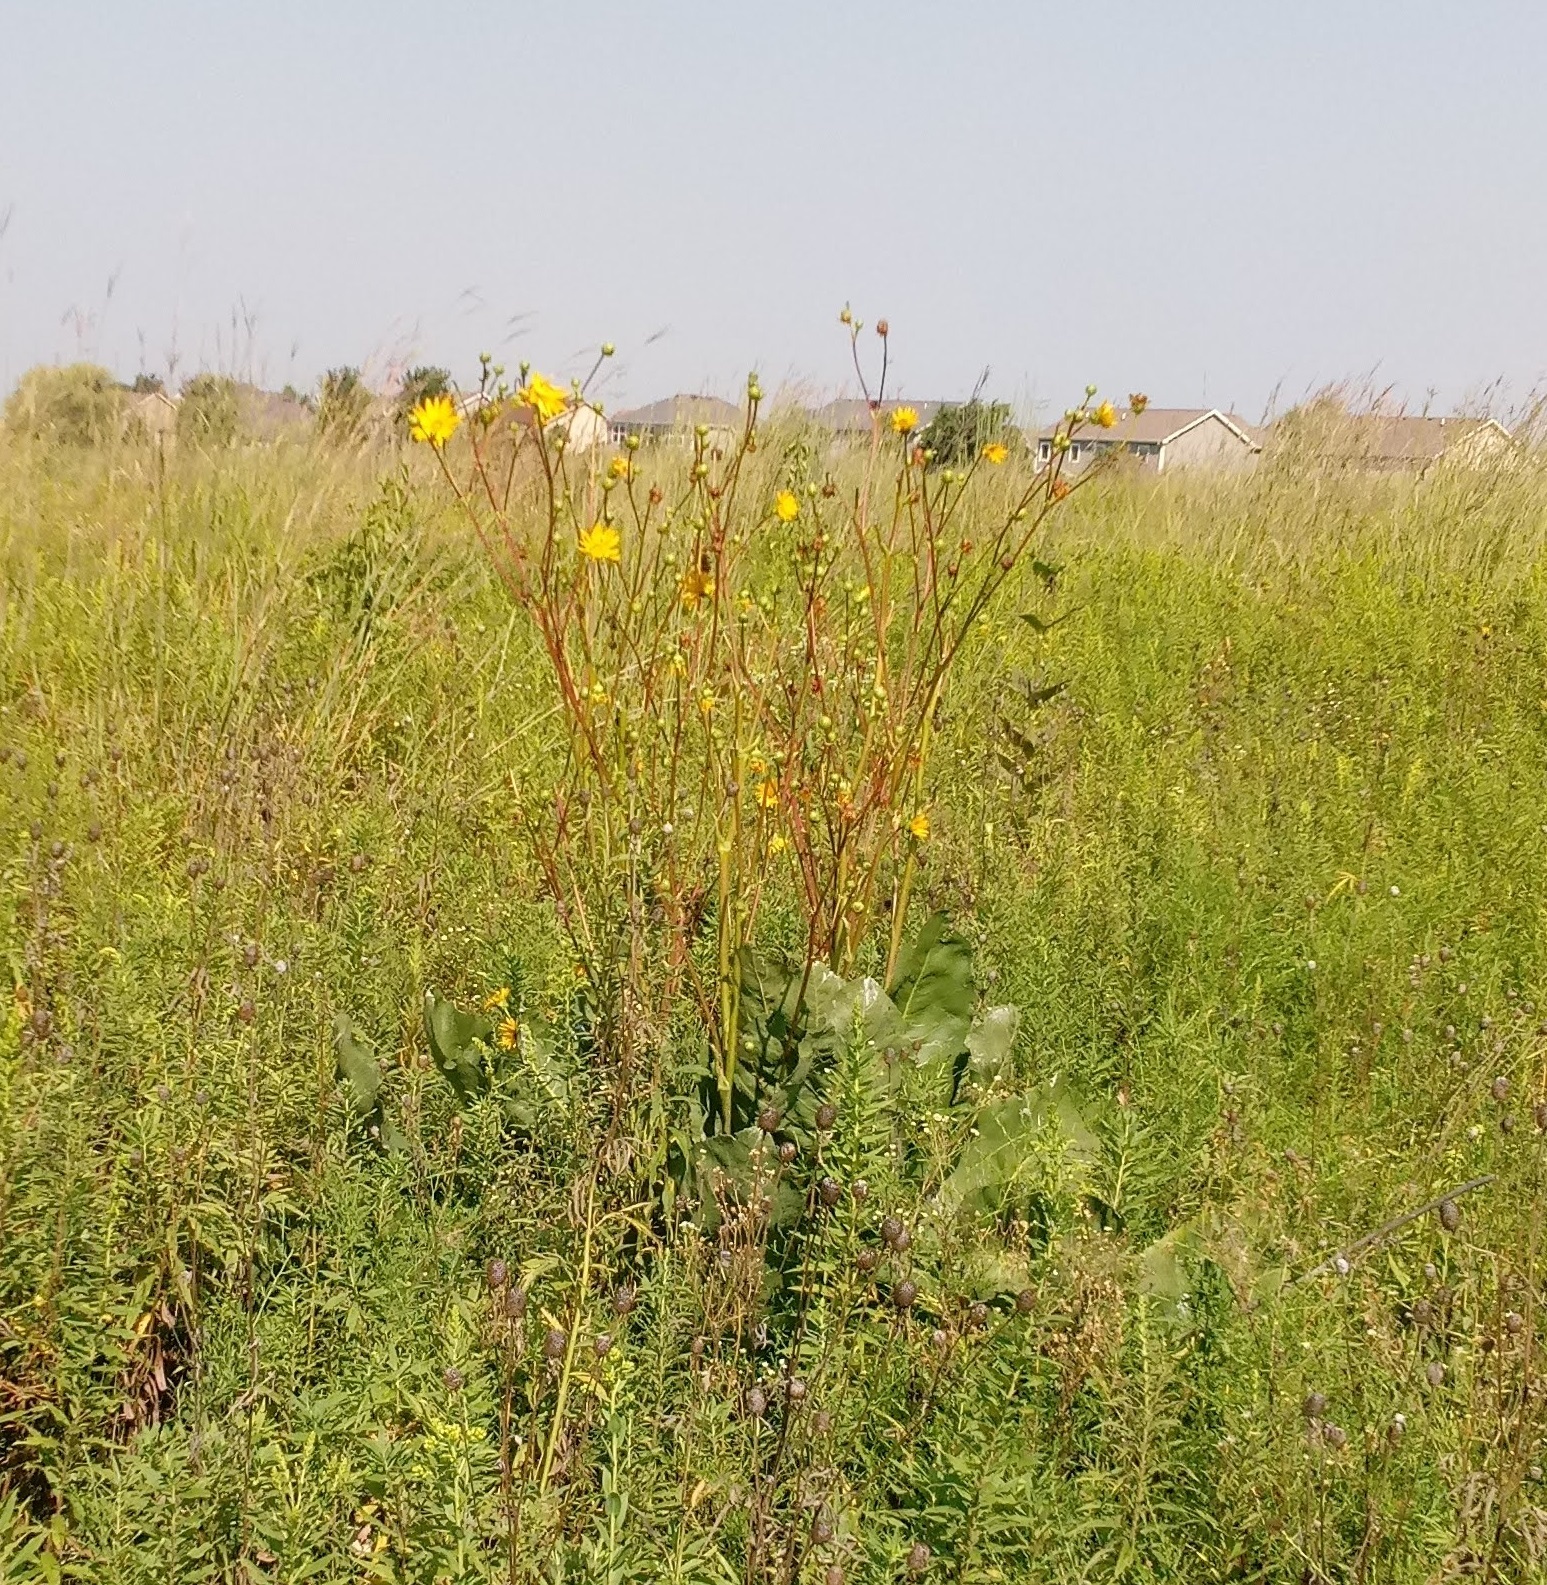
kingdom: Plantae
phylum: Tracheophyta
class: Magnoliopsida
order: Asterales
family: Asteraceae
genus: Silphium
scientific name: Silphium terebinthinaceum
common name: Basal-leaf rosinweed
